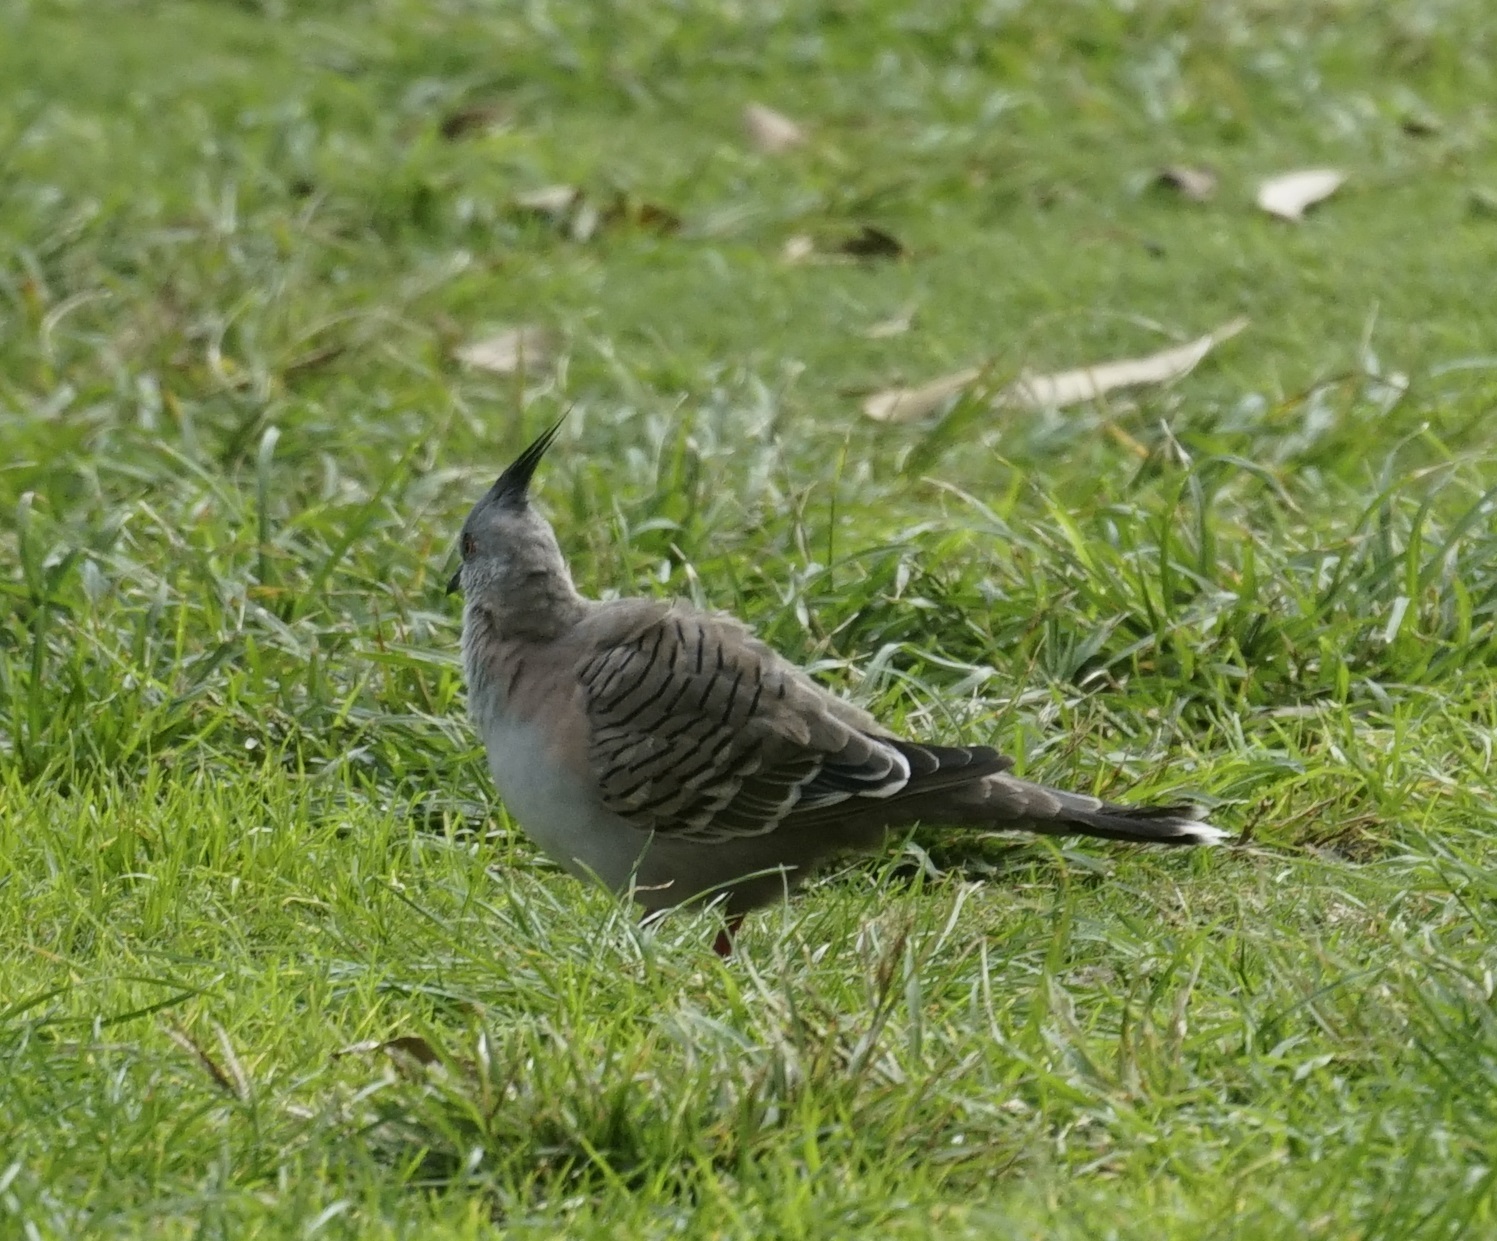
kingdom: Animalia
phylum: Chordata
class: Aves
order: Columbiformes
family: Columbidae
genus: Ocyphaps
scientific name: Ocyphaps lophotes
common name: Crested pigeon
